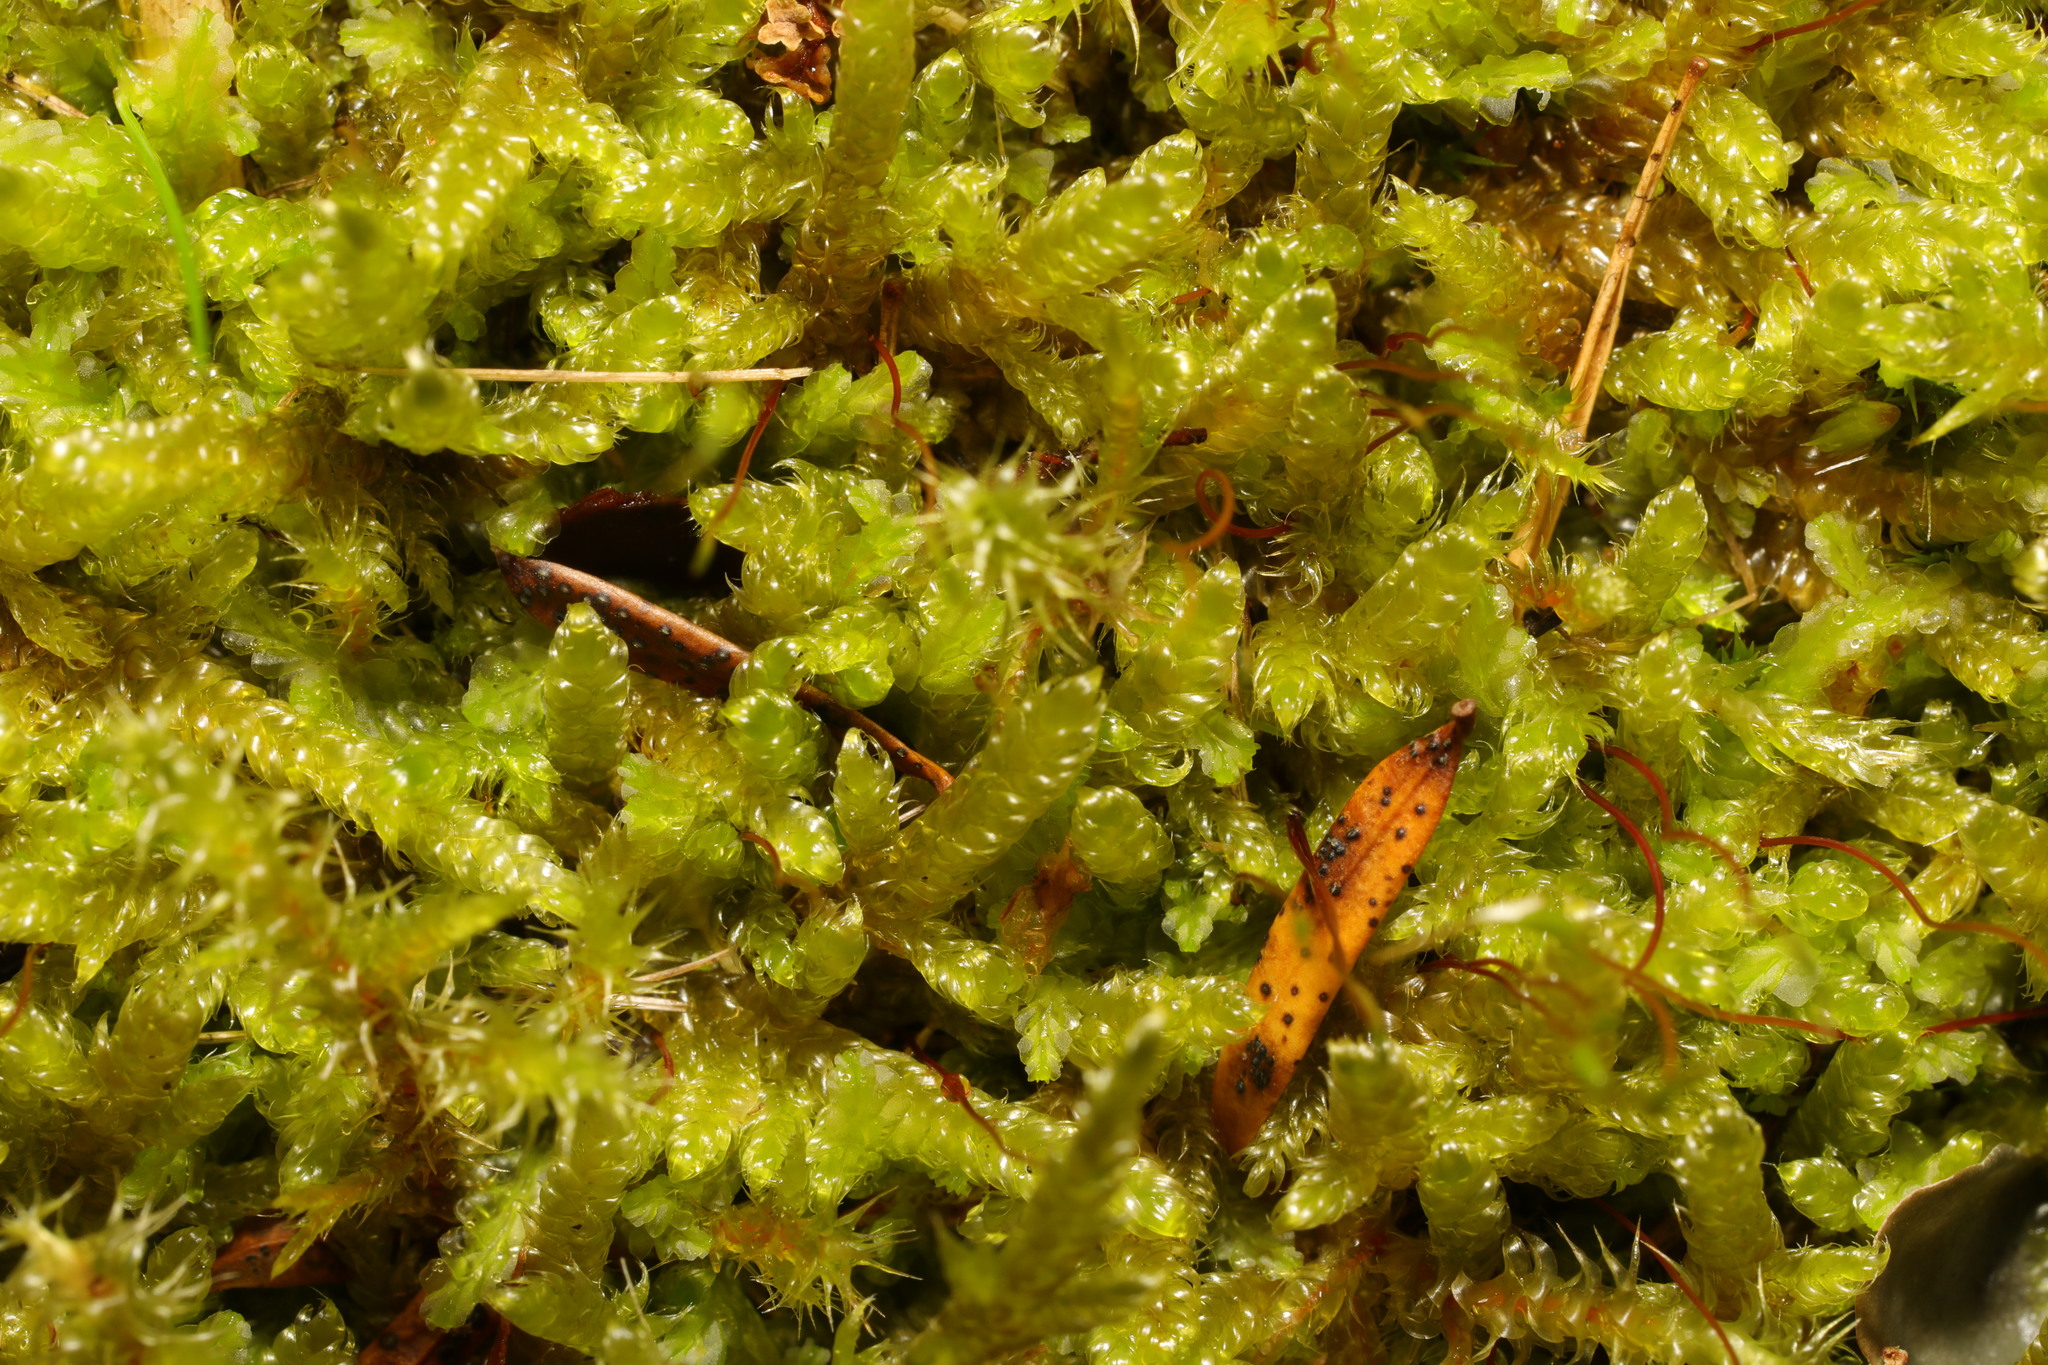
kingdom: Plantae
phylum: Bryophyta
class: Bryopsida
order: Hypnales
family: Hypnaceae
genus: Hypnum
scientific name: Hypnum cupressiforme
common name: Cypress-leaved plait-moss
